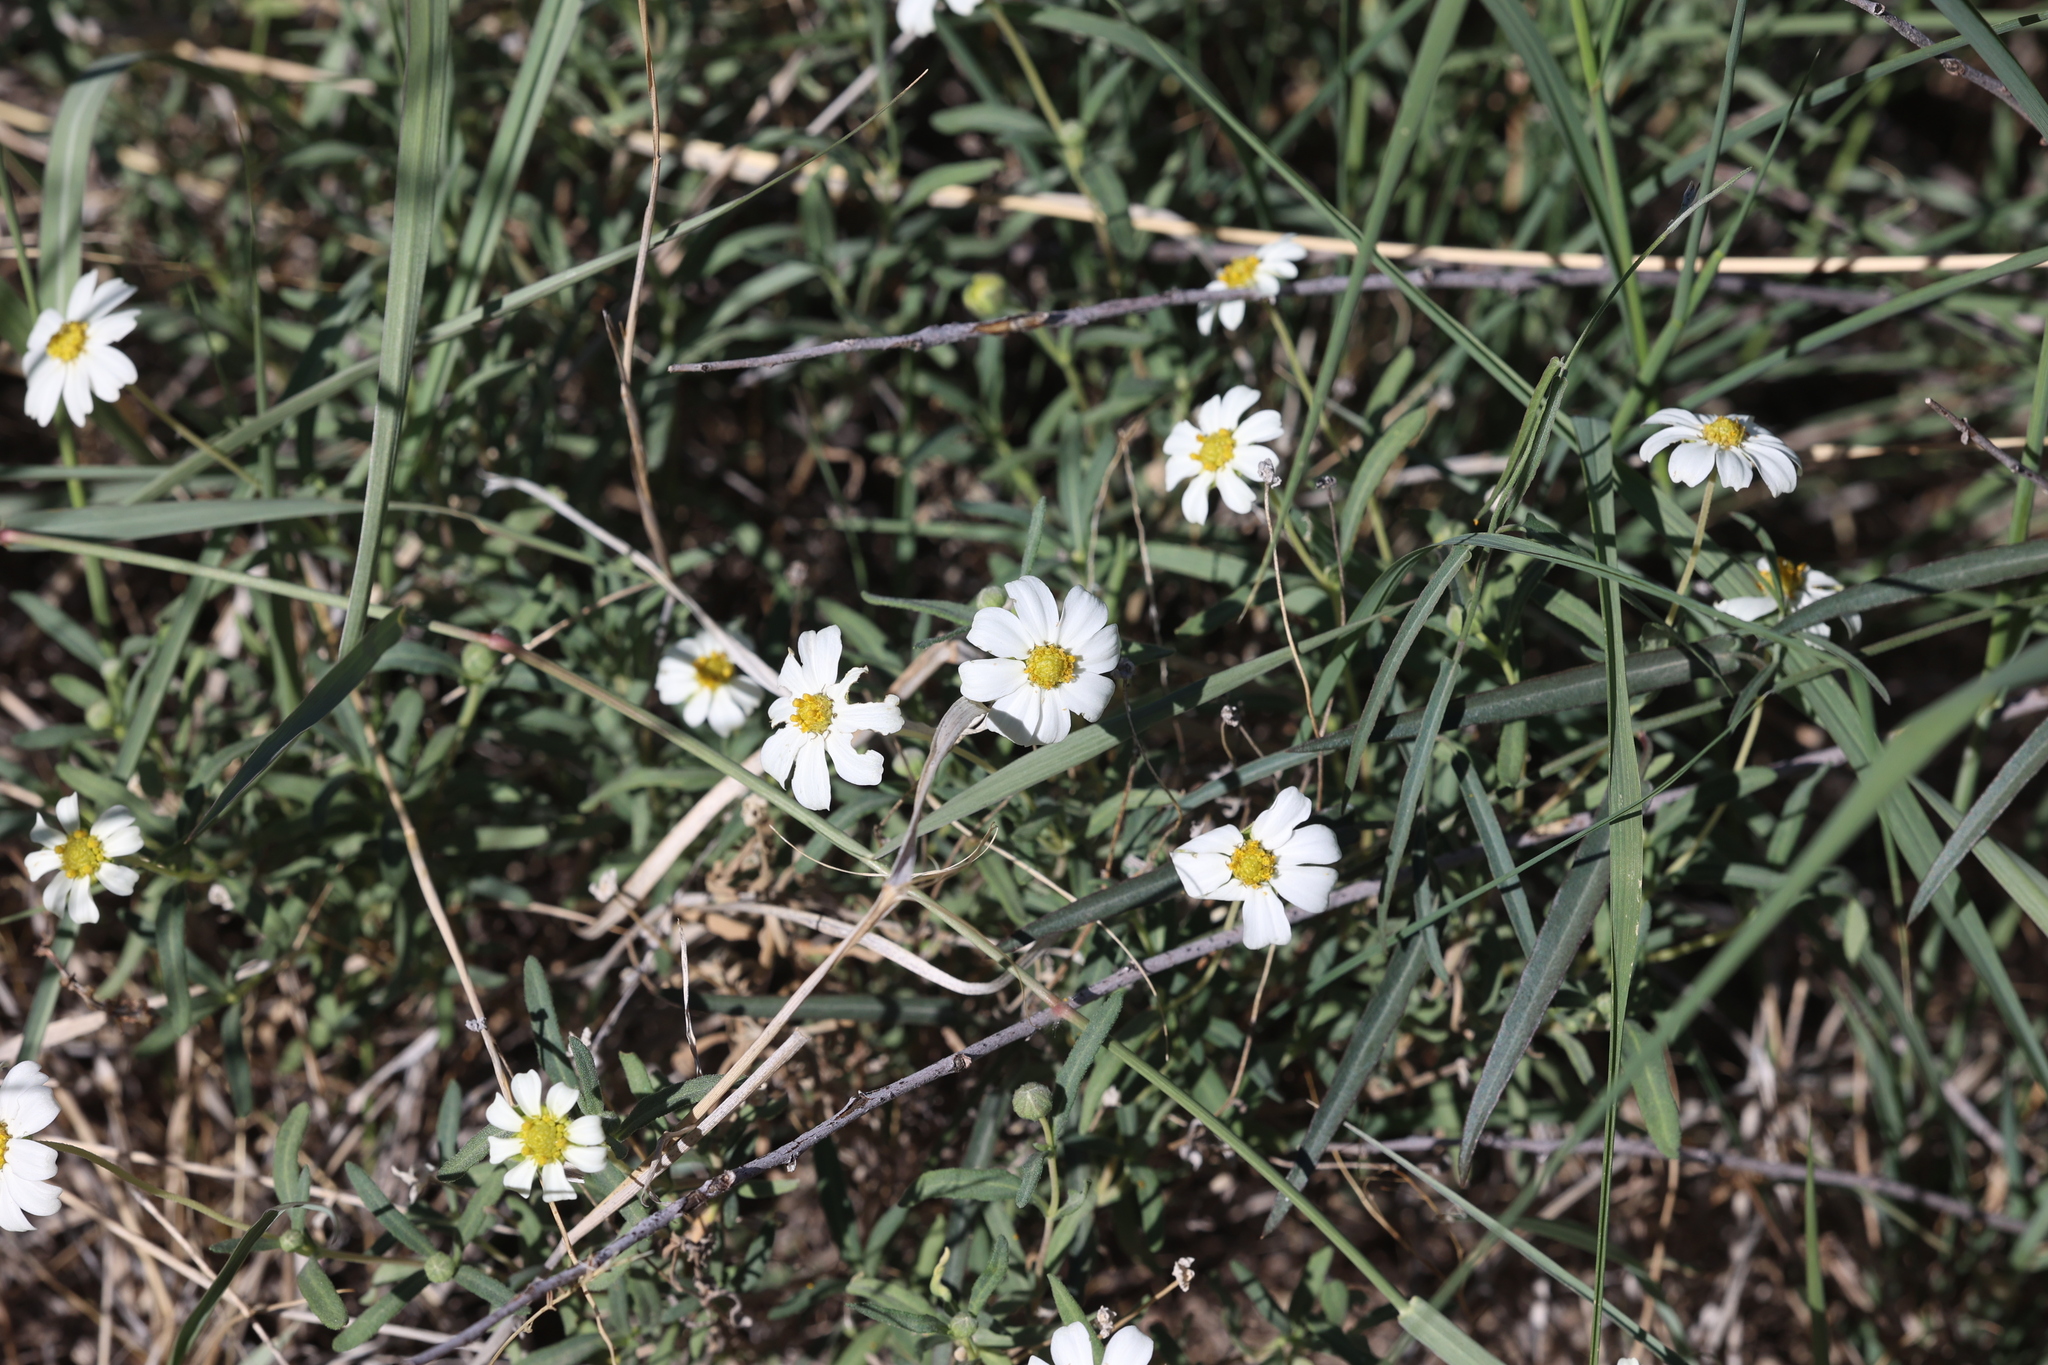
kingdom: Plantae
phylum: Tracheophyta
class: Magnoliopsida
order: Asterales
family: Asteraceae
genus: Melampodium
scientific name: Melampodium leucanthum
